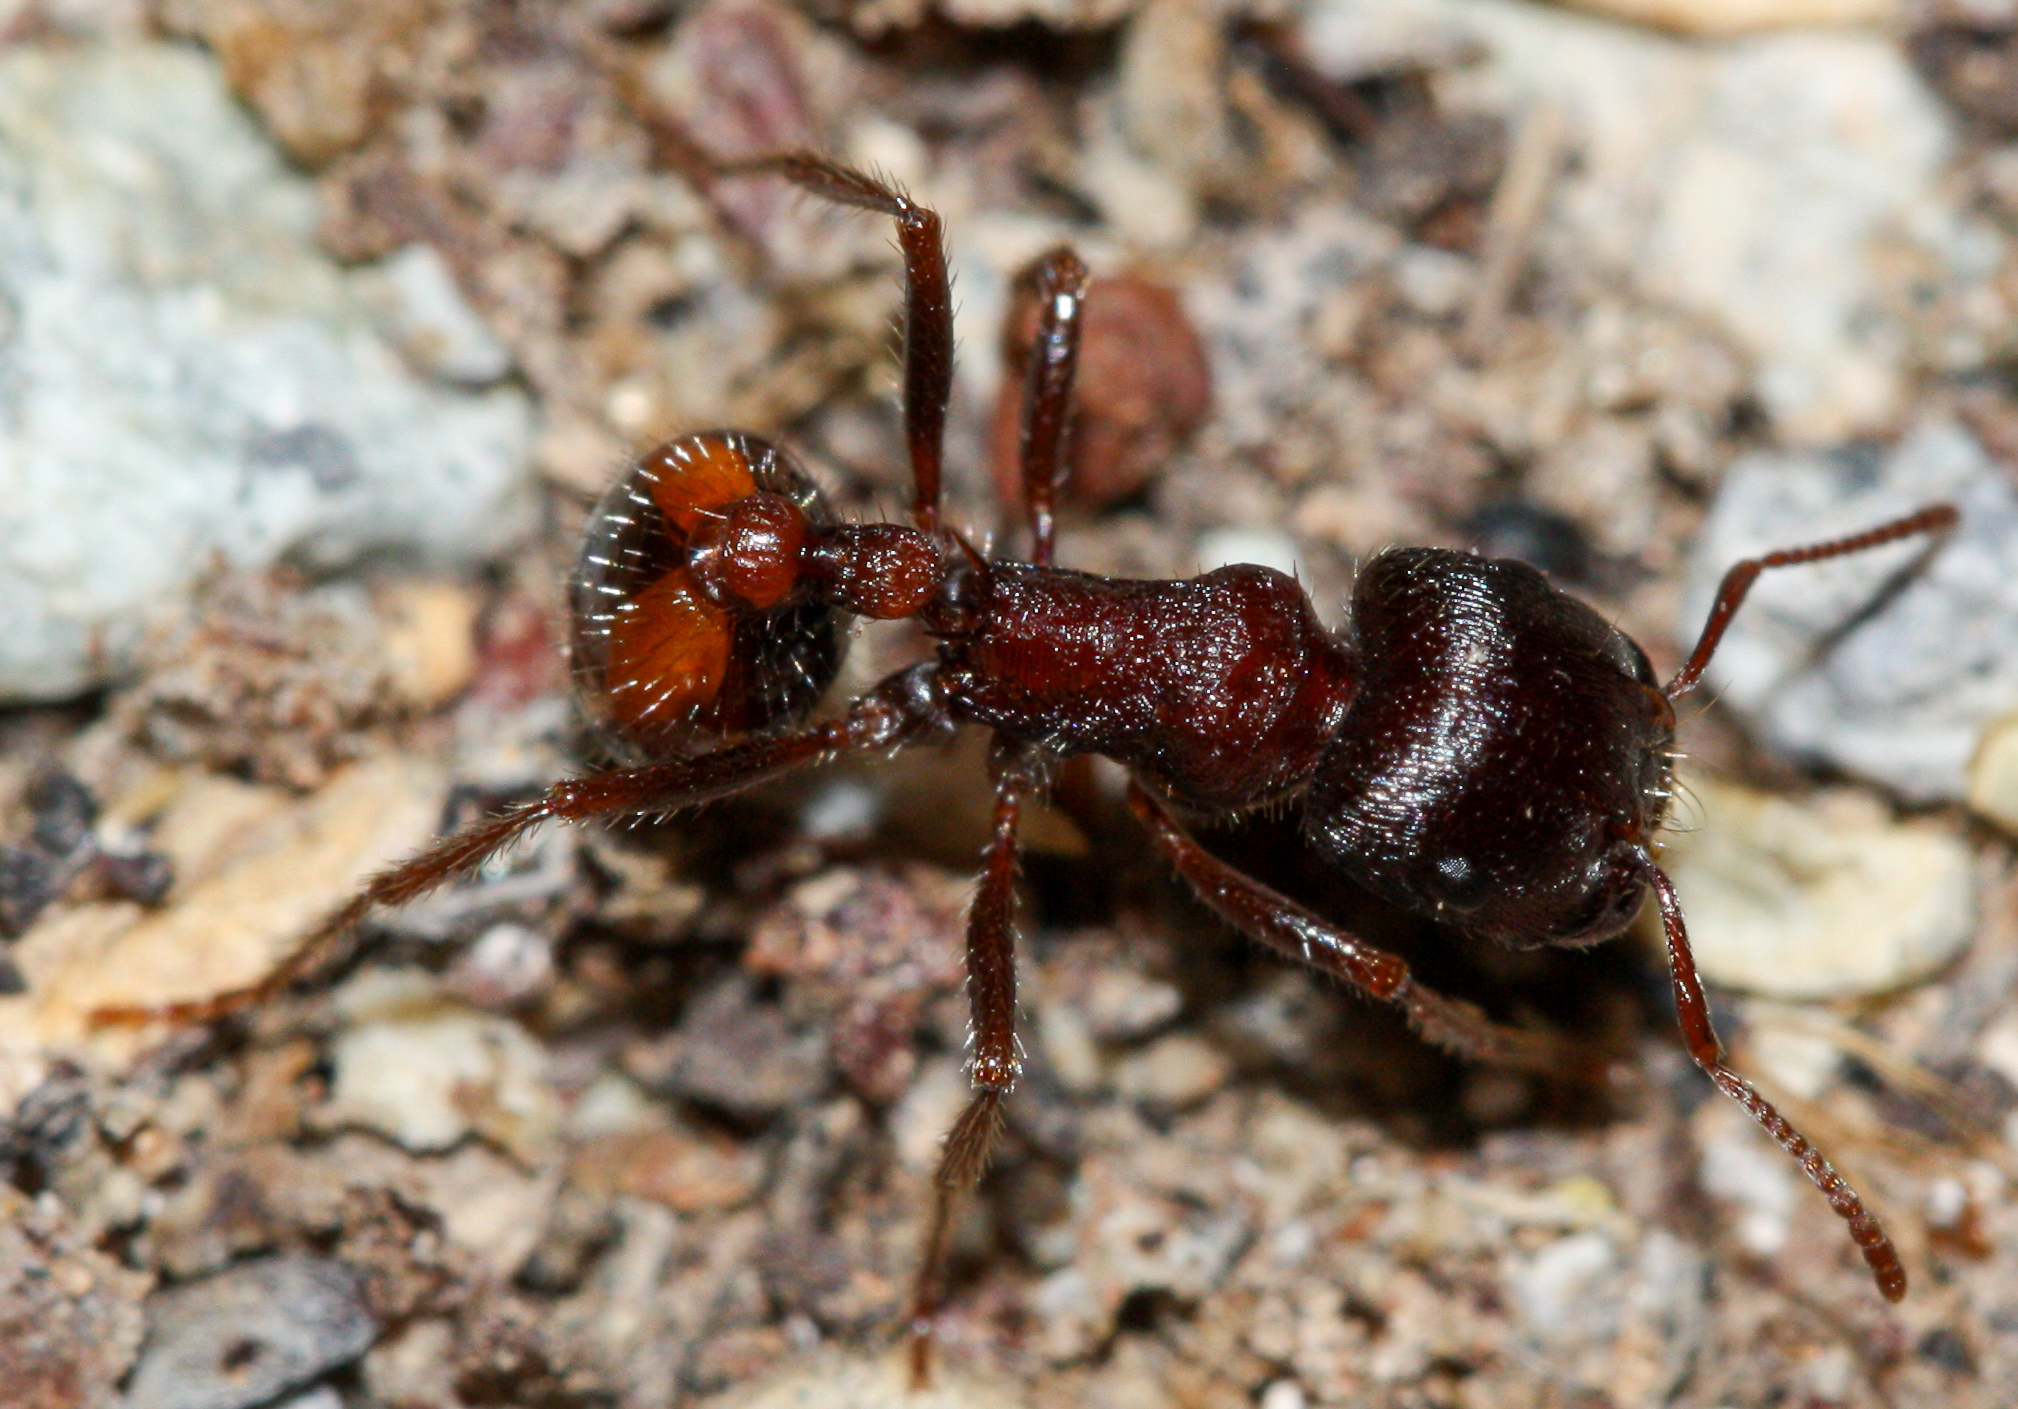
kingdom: Animalia
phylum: Arthropoda
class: Insecta
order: Hymenoptera
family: Formicidae
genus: Pogonomyrmex
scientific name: Pogonomyrmex rugosus
